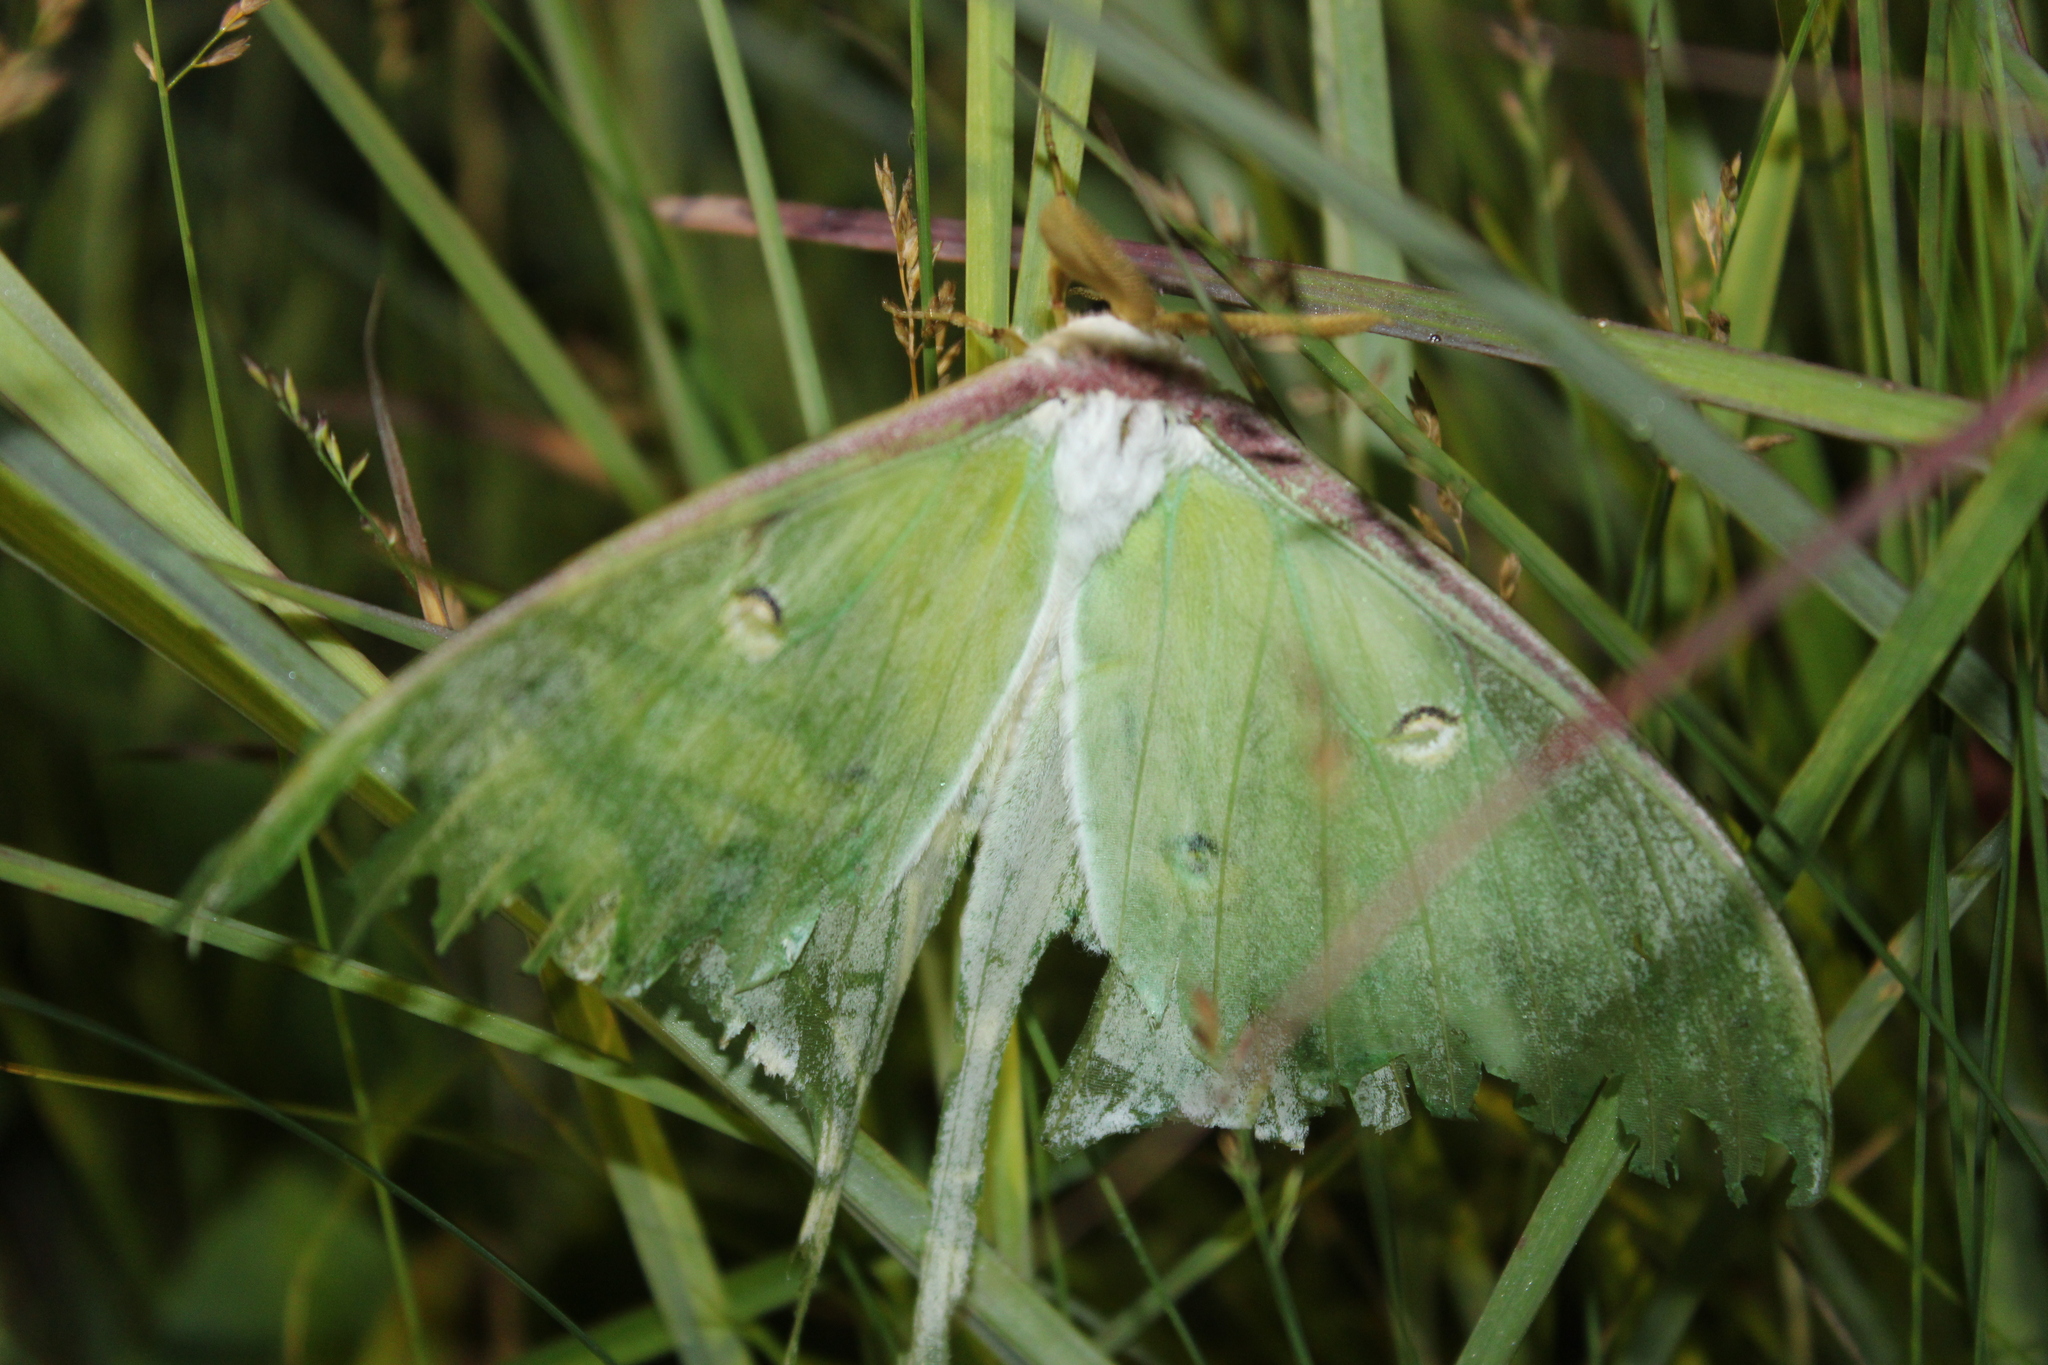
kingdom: Animalia
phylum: Arthropoda
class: Insecta
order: Lepidoptera
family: Saturniidae
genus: Actias
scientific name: Actias luna
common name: Luna moth
